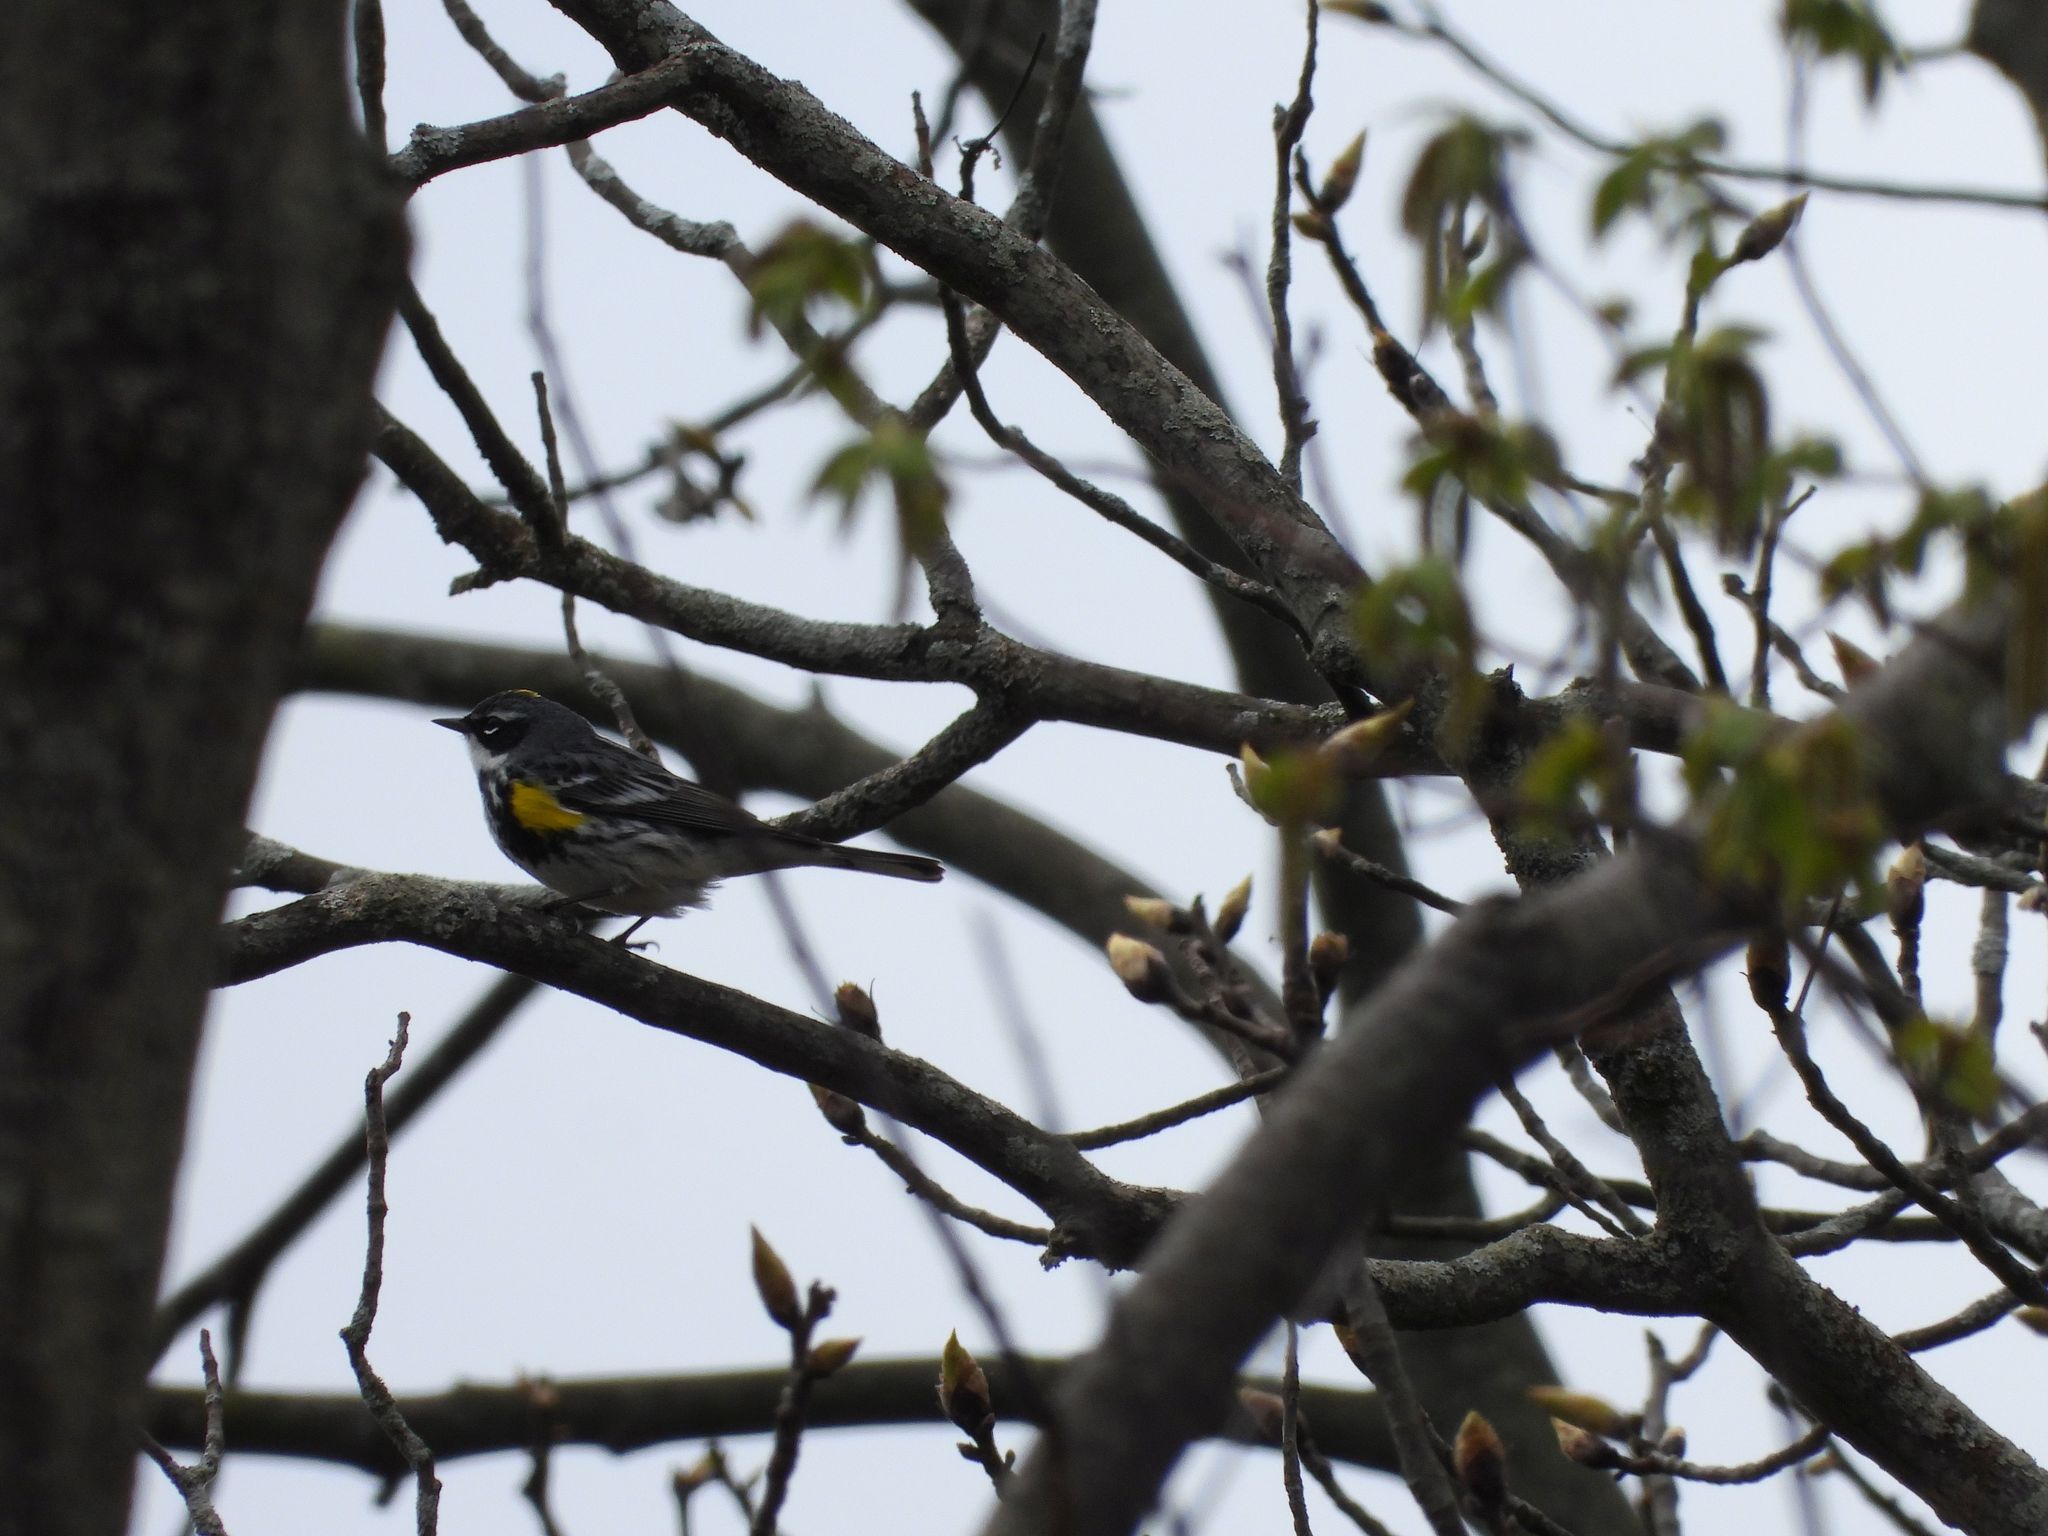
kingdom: Animalia
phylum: Chordata
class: Aves
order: Passeriformes
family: Parulidae
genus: Setophaga
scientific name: Setophaga coronata
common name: Myrtle warbler
